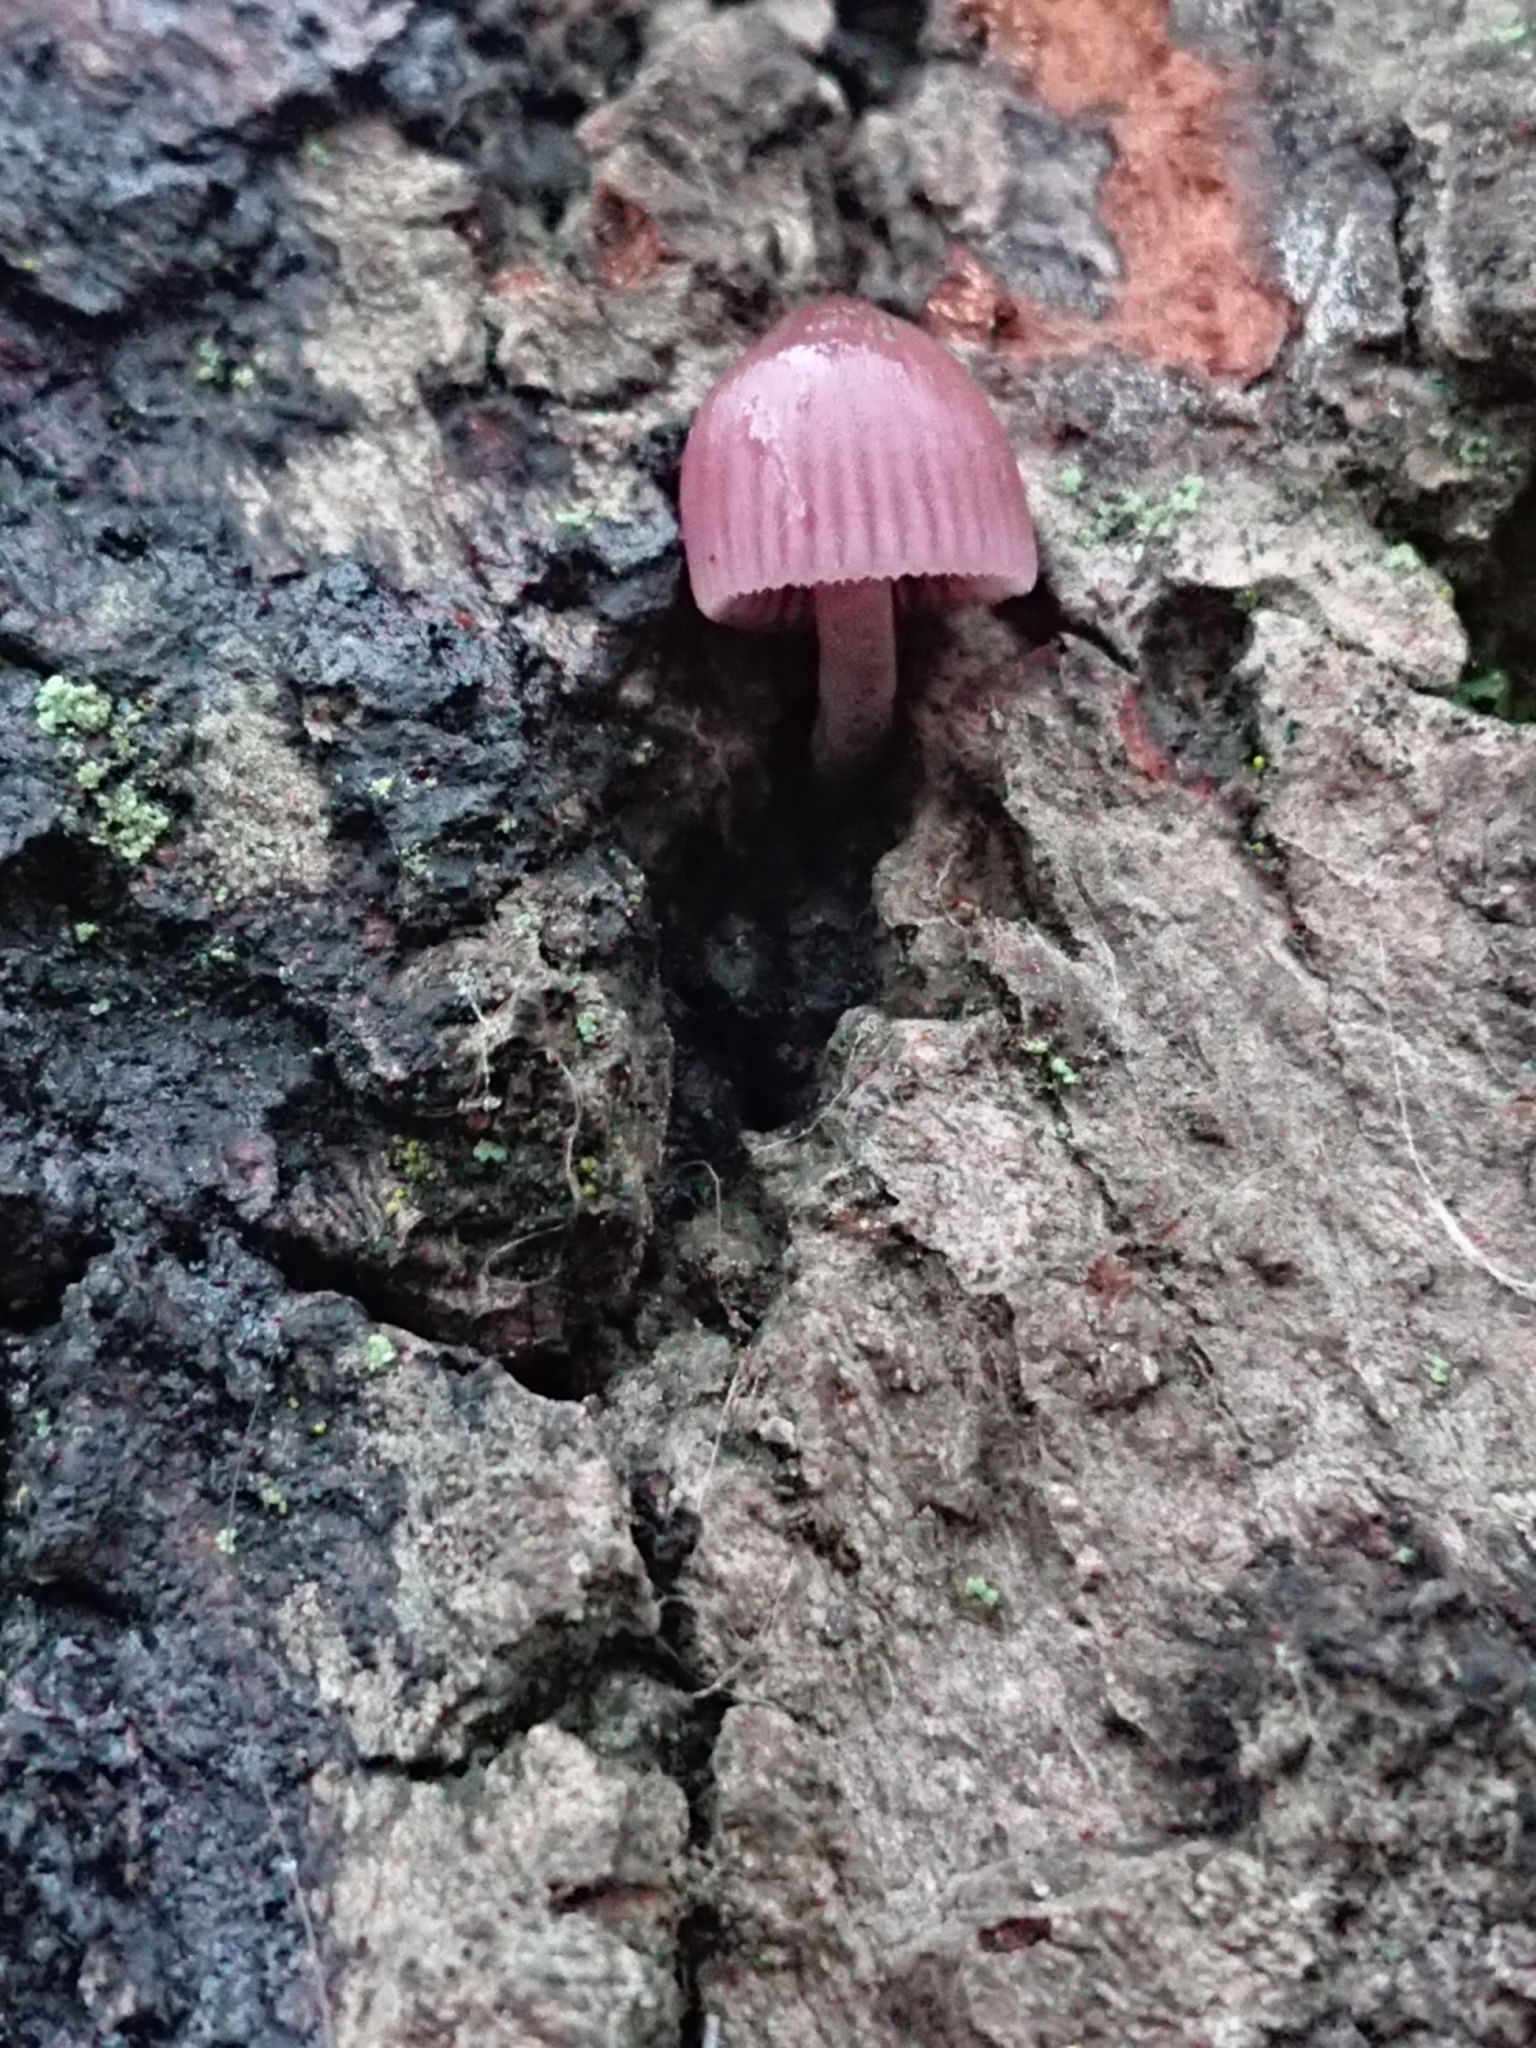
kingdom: Fungi
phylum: Basidiomycota
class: Agaricomycetes
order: Agaricales
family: Mycenaceae
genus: Mycena
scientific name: Mycena clarkeana
